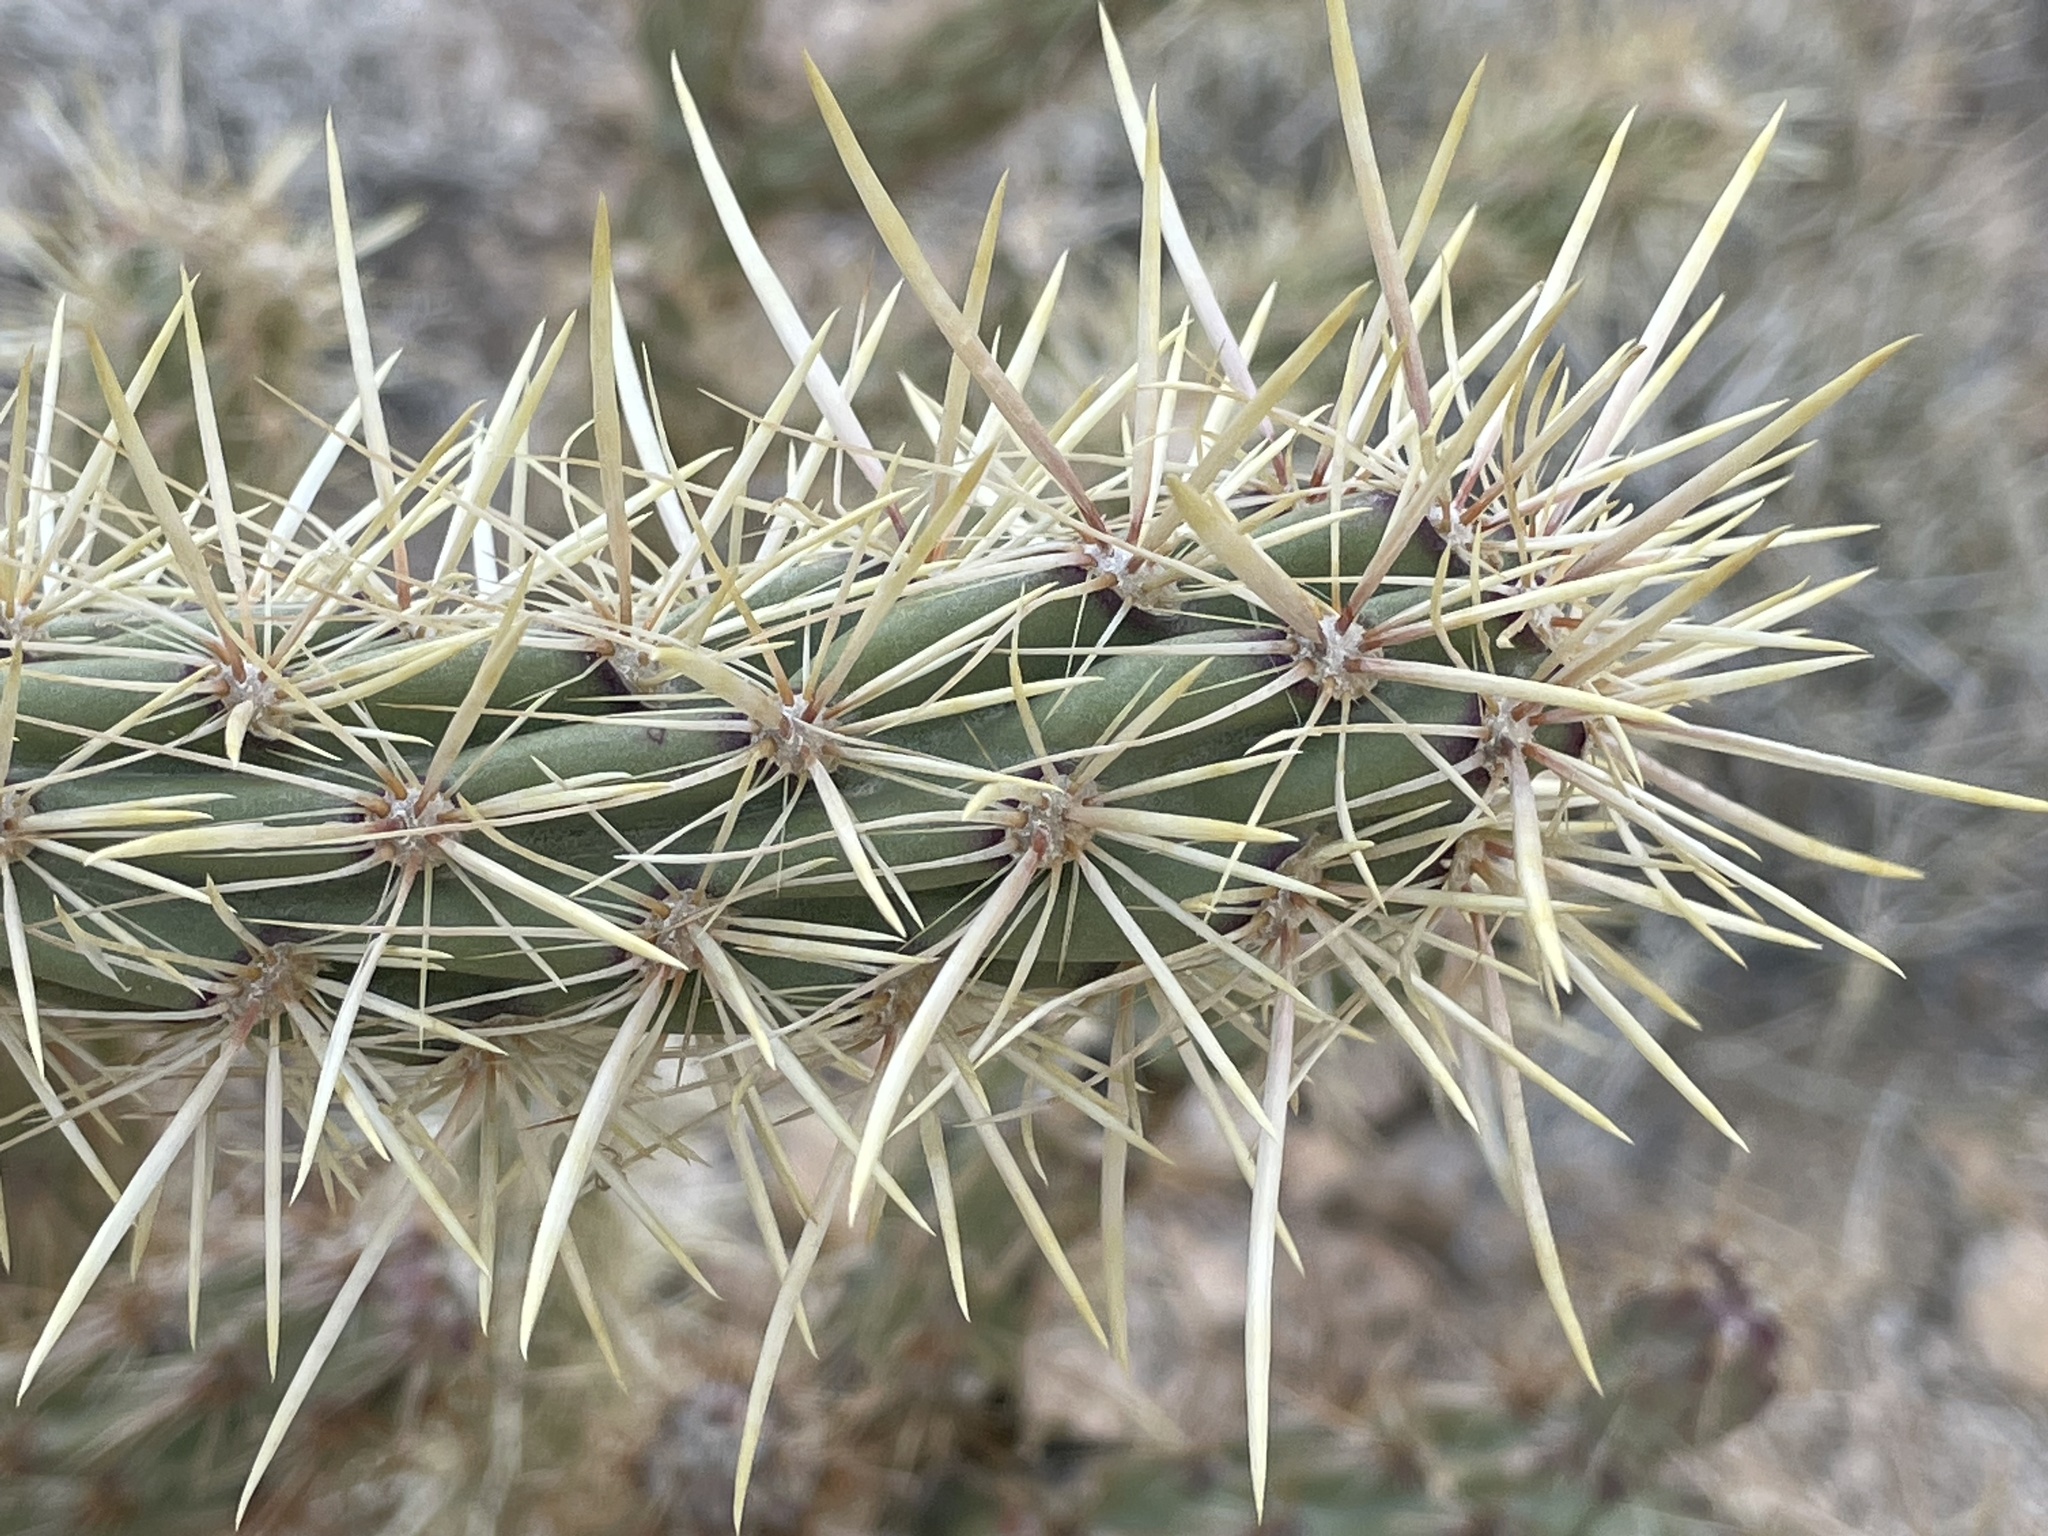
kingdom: Plantae
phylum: Tracheophyta
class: Magnoliopsida
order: Caryophyllales
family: Cactaceae
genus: Cylindropuntia
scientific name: Cylindropuntia acanthocarpa
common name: Buckhorn cholla
